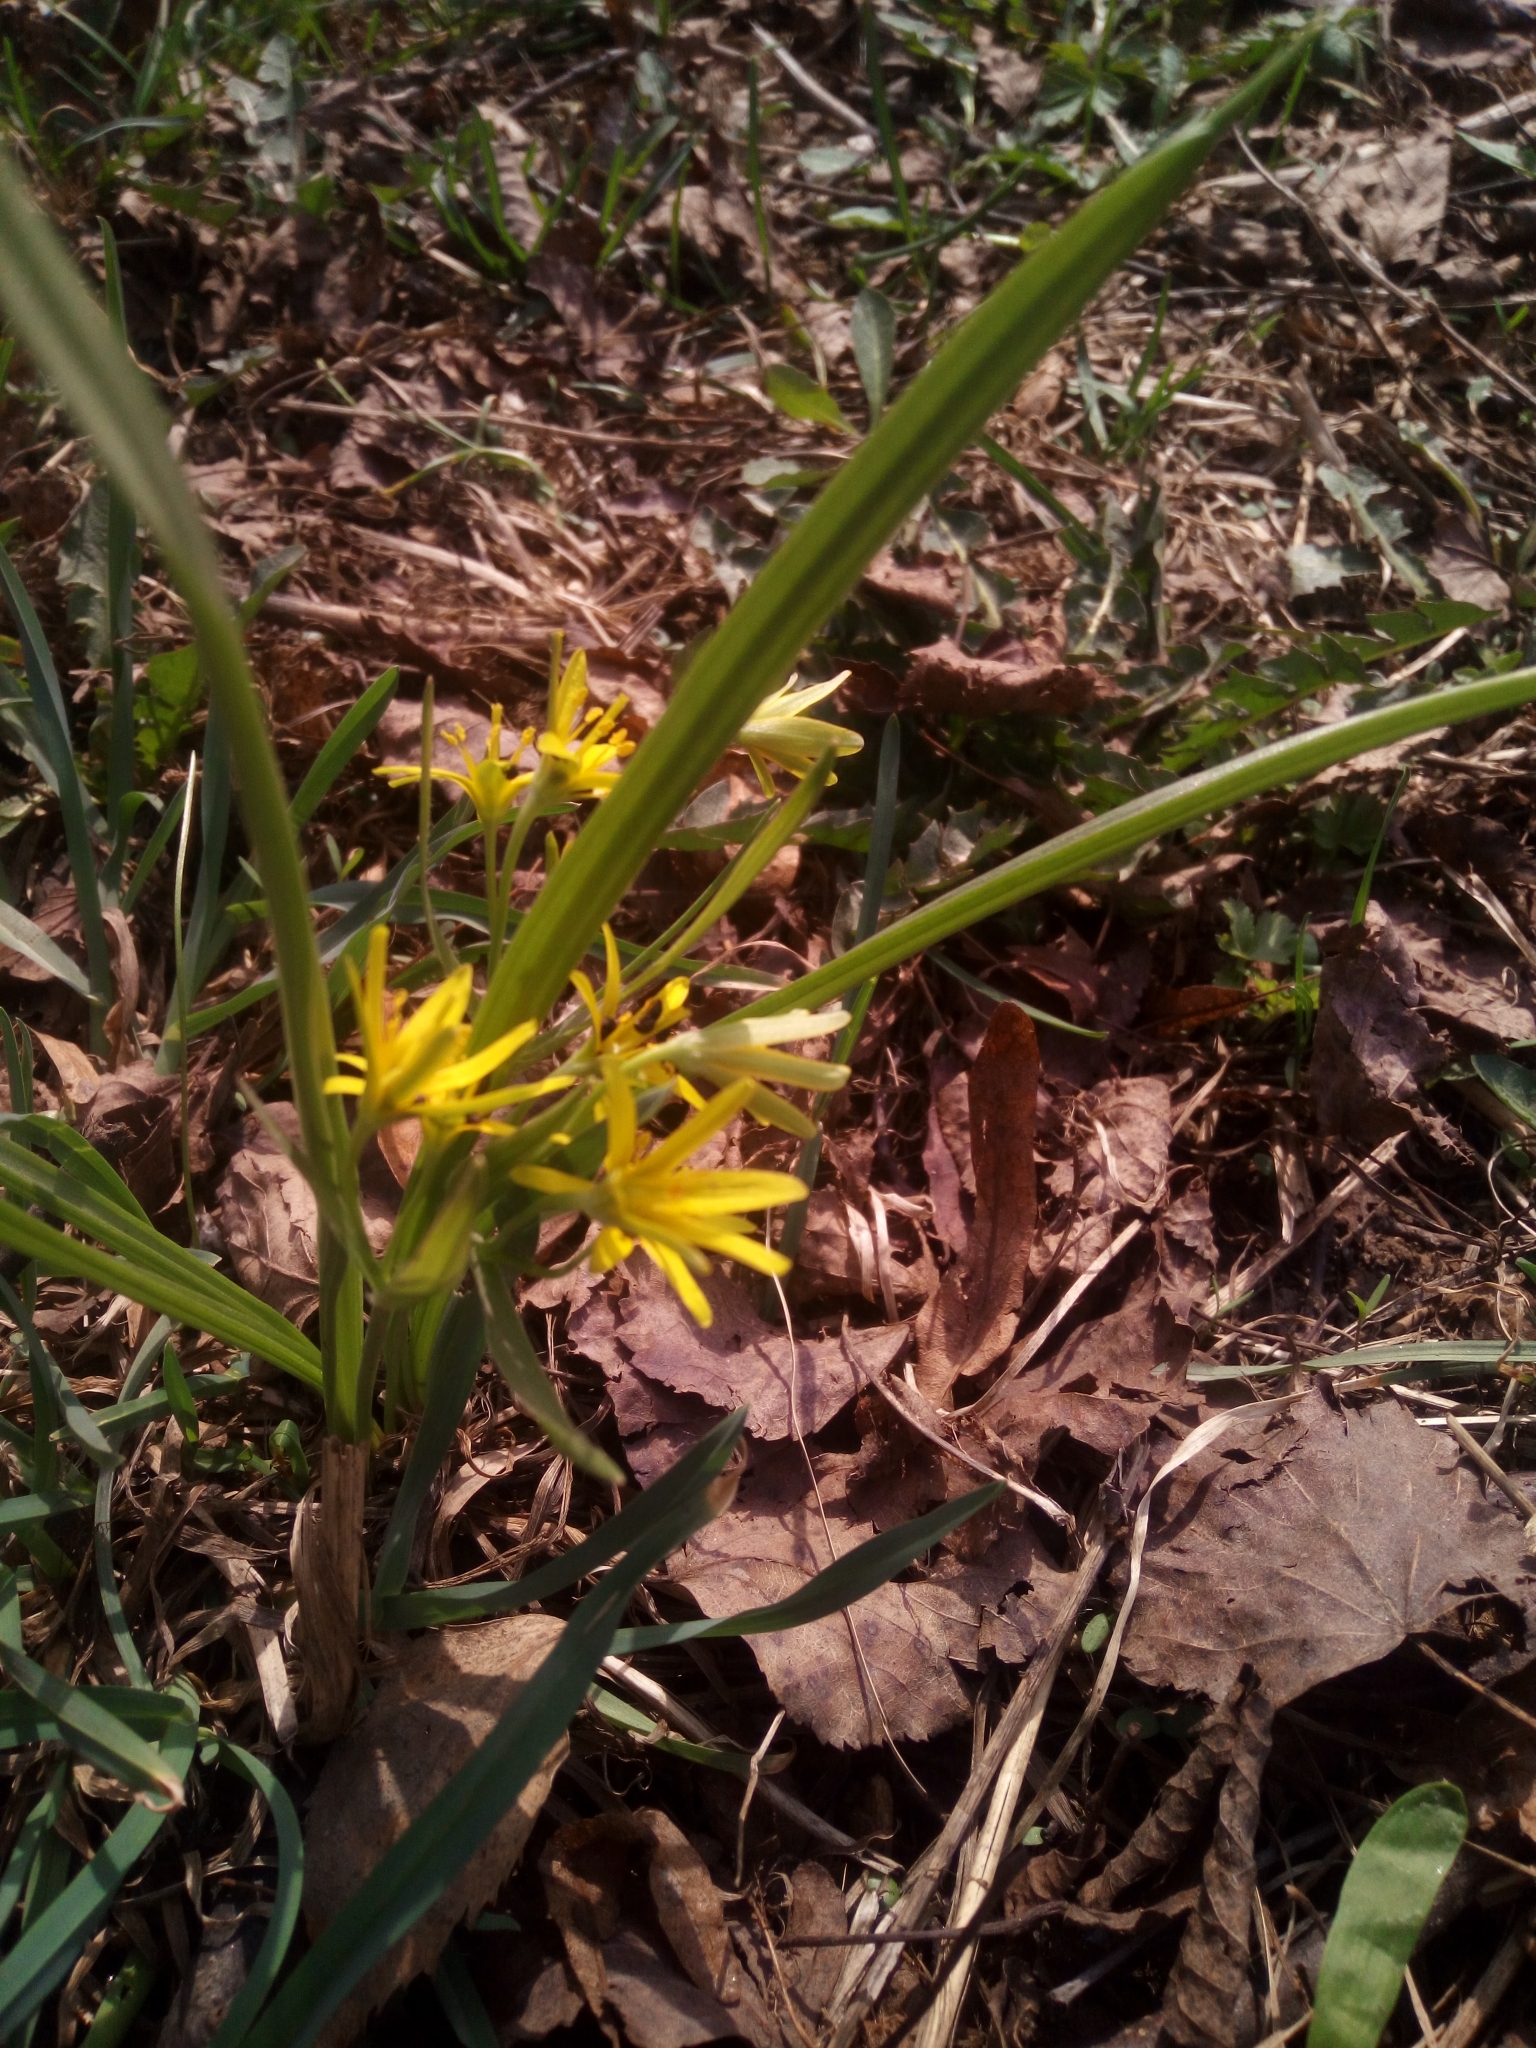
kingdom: Plantae
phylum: Tracheophyta
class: Liliopsida
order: Liliales
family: Liliaceae
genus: Gagea
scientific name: Gagea lutea
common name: Yellow star-of-bethlehem
